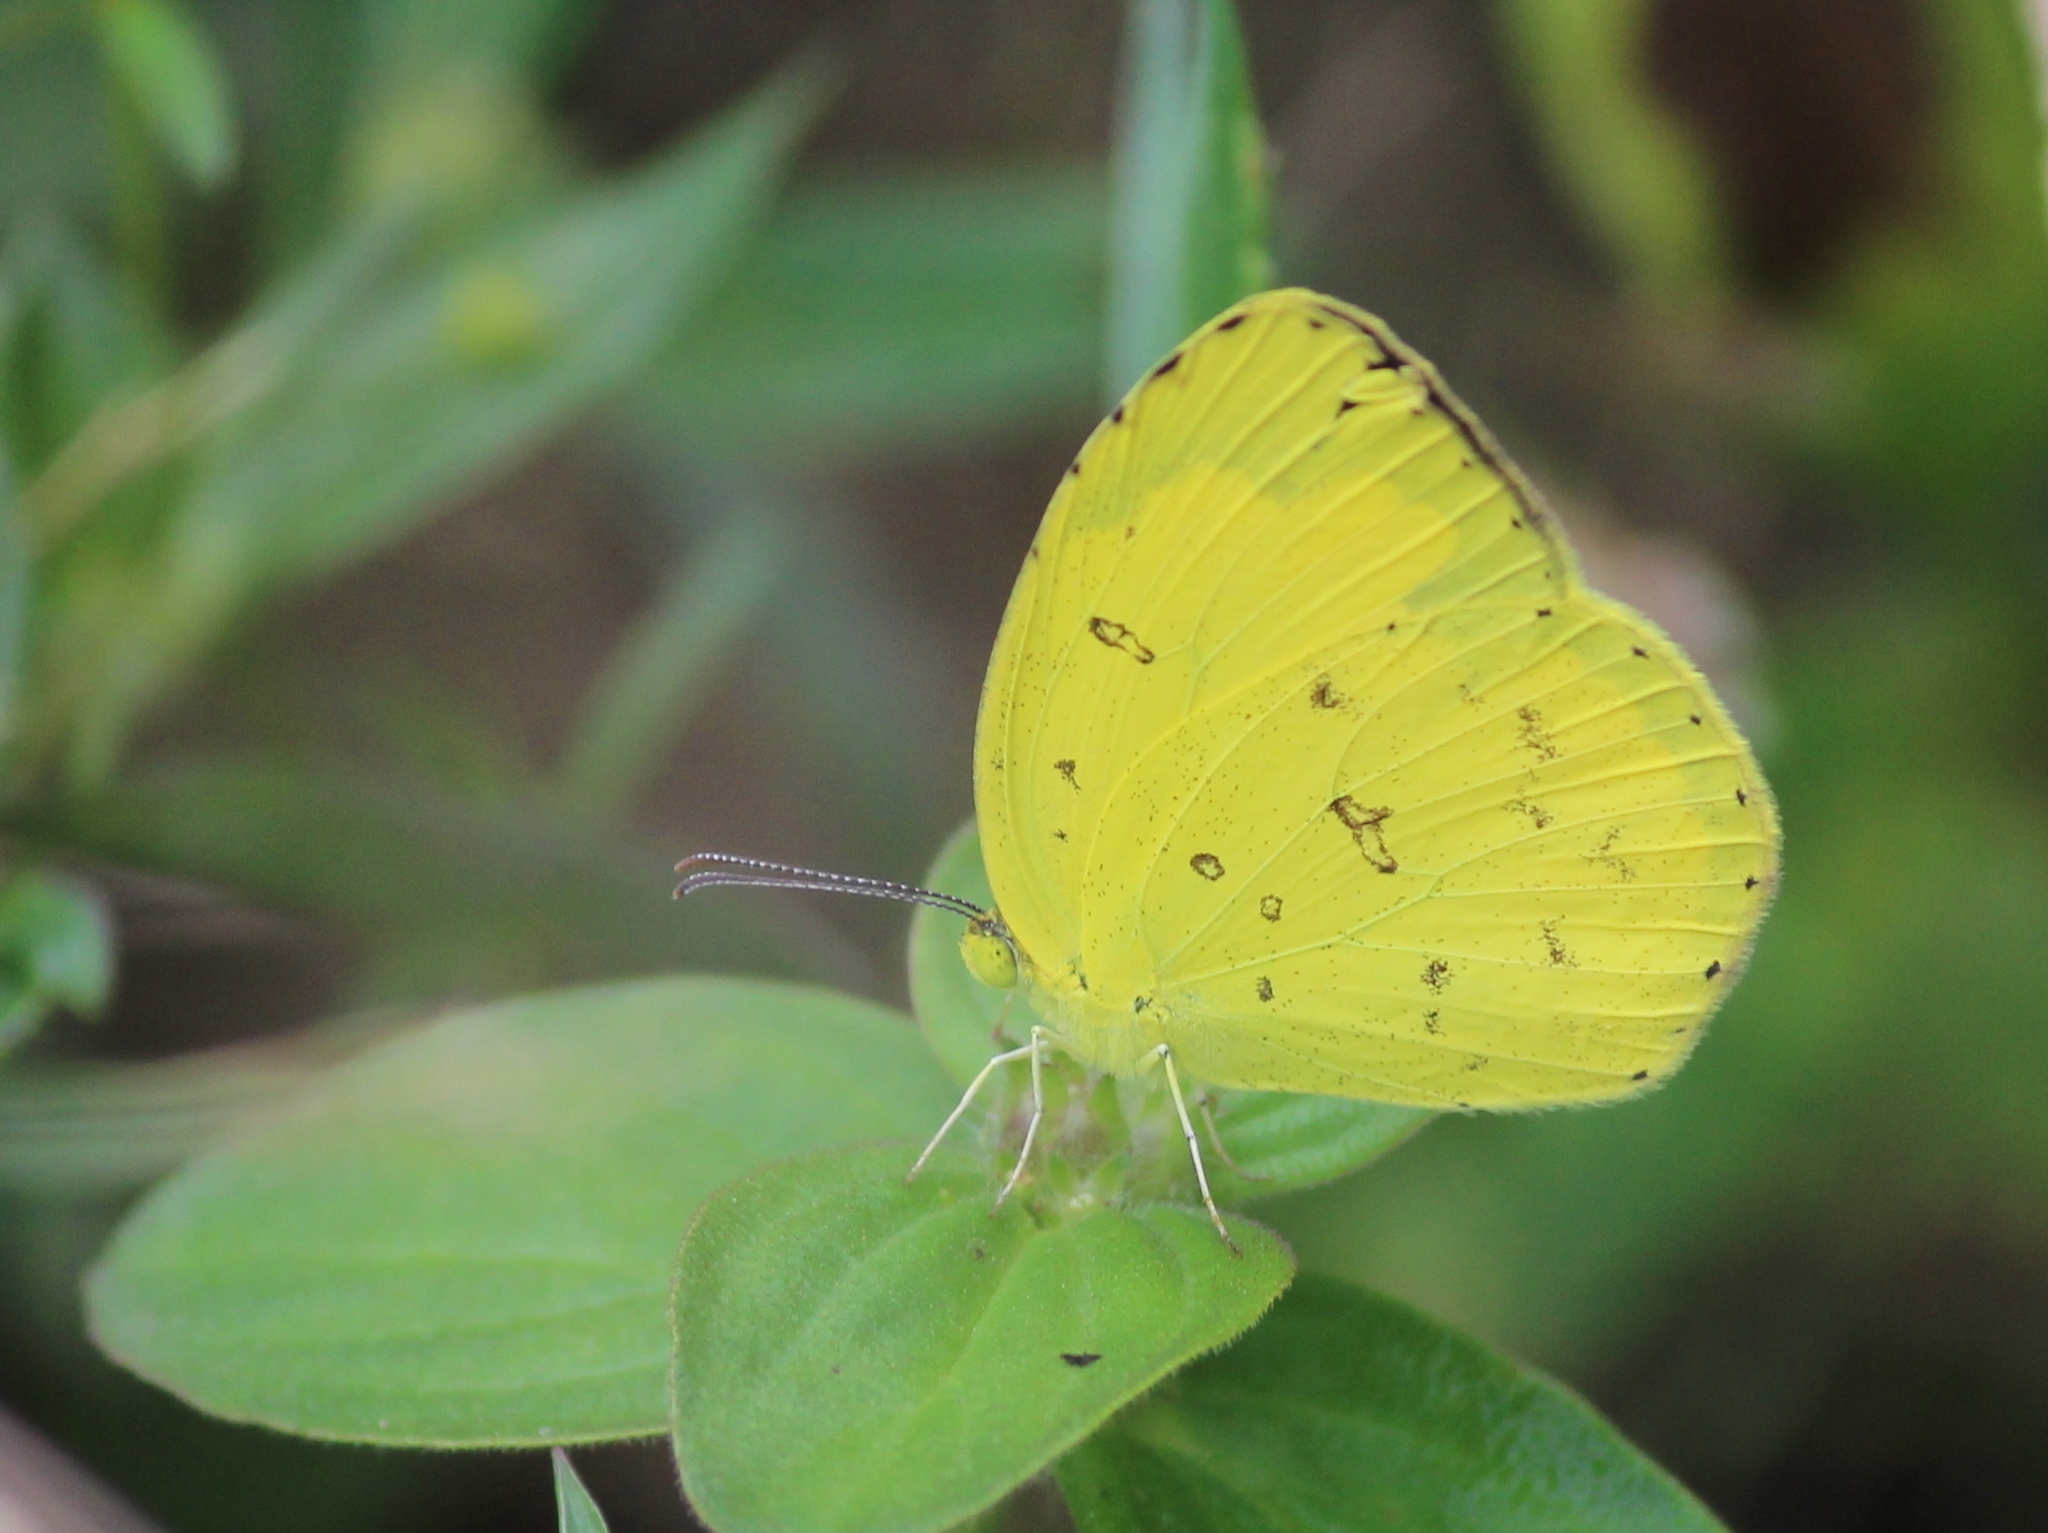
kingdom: Animalia
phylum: Arthropoda
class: Insecta
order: Lepidoptera
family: Pieridae
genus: Eurema
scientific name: Eurema hecabe
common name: Pale grass yellow
